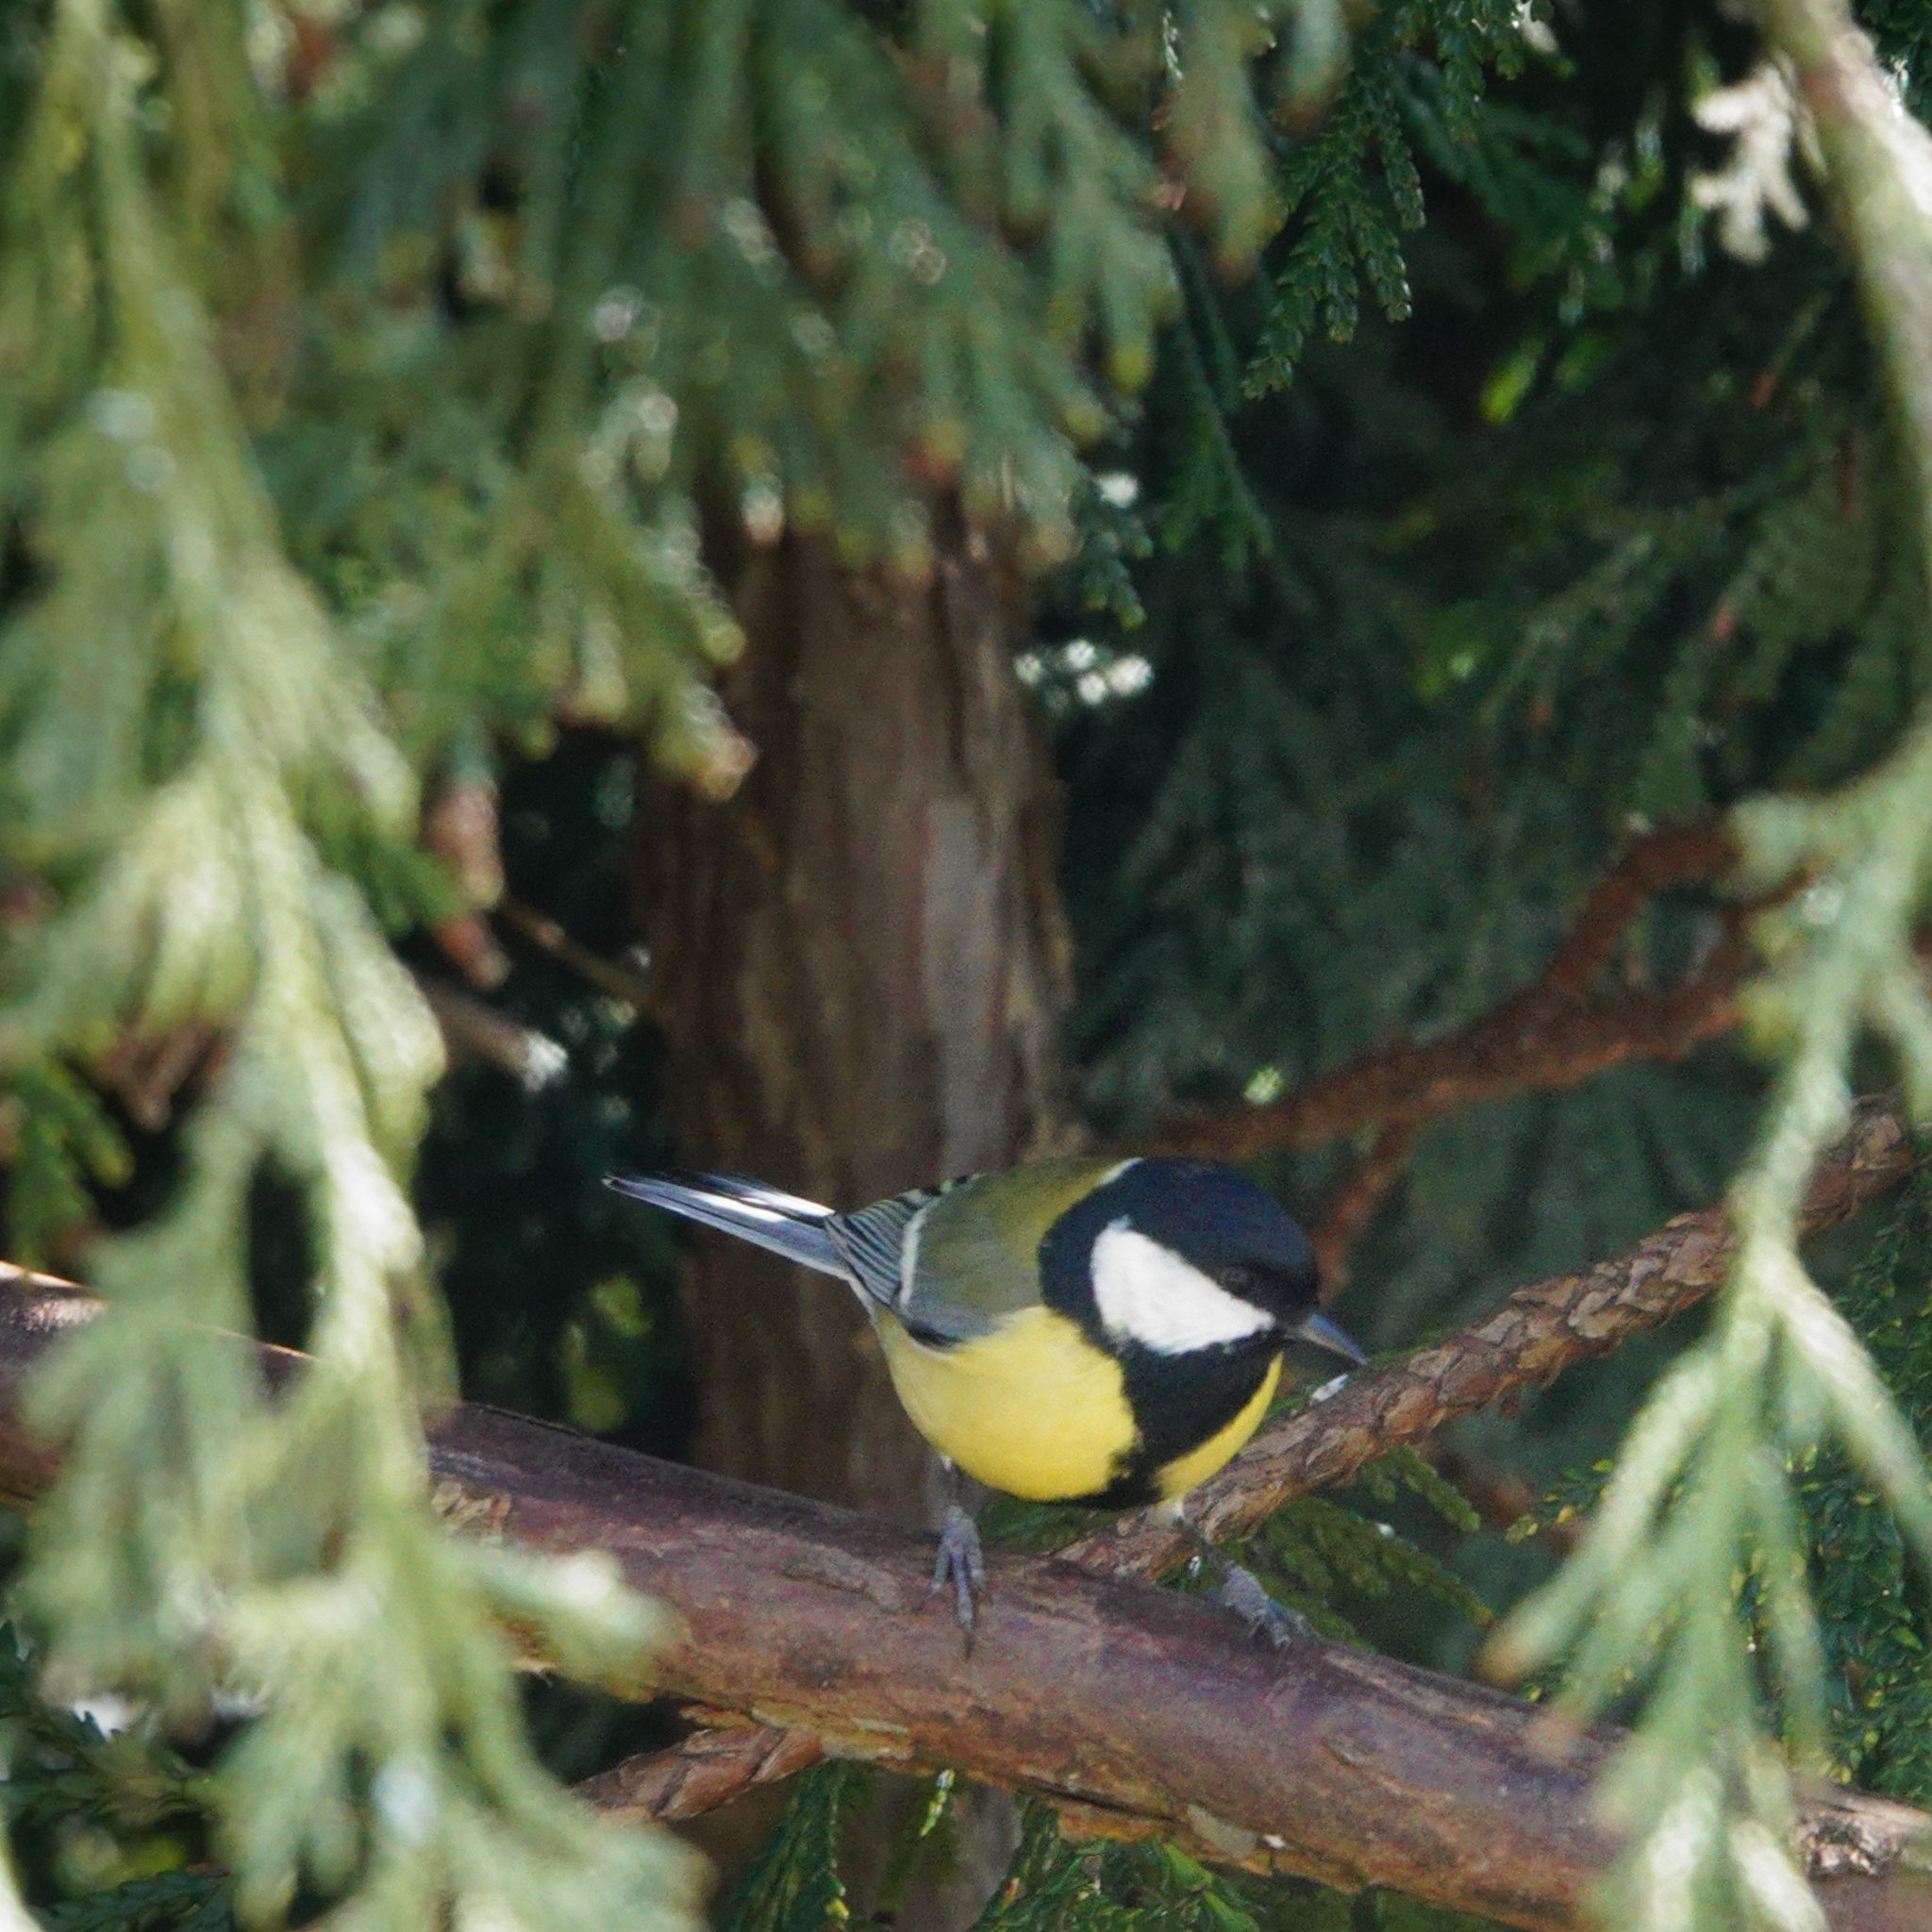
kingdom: Animalia
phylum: Chordata
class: Aves
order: Passeriformes
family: Paridae
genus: Parus
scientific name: Parus major
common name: Great tit
